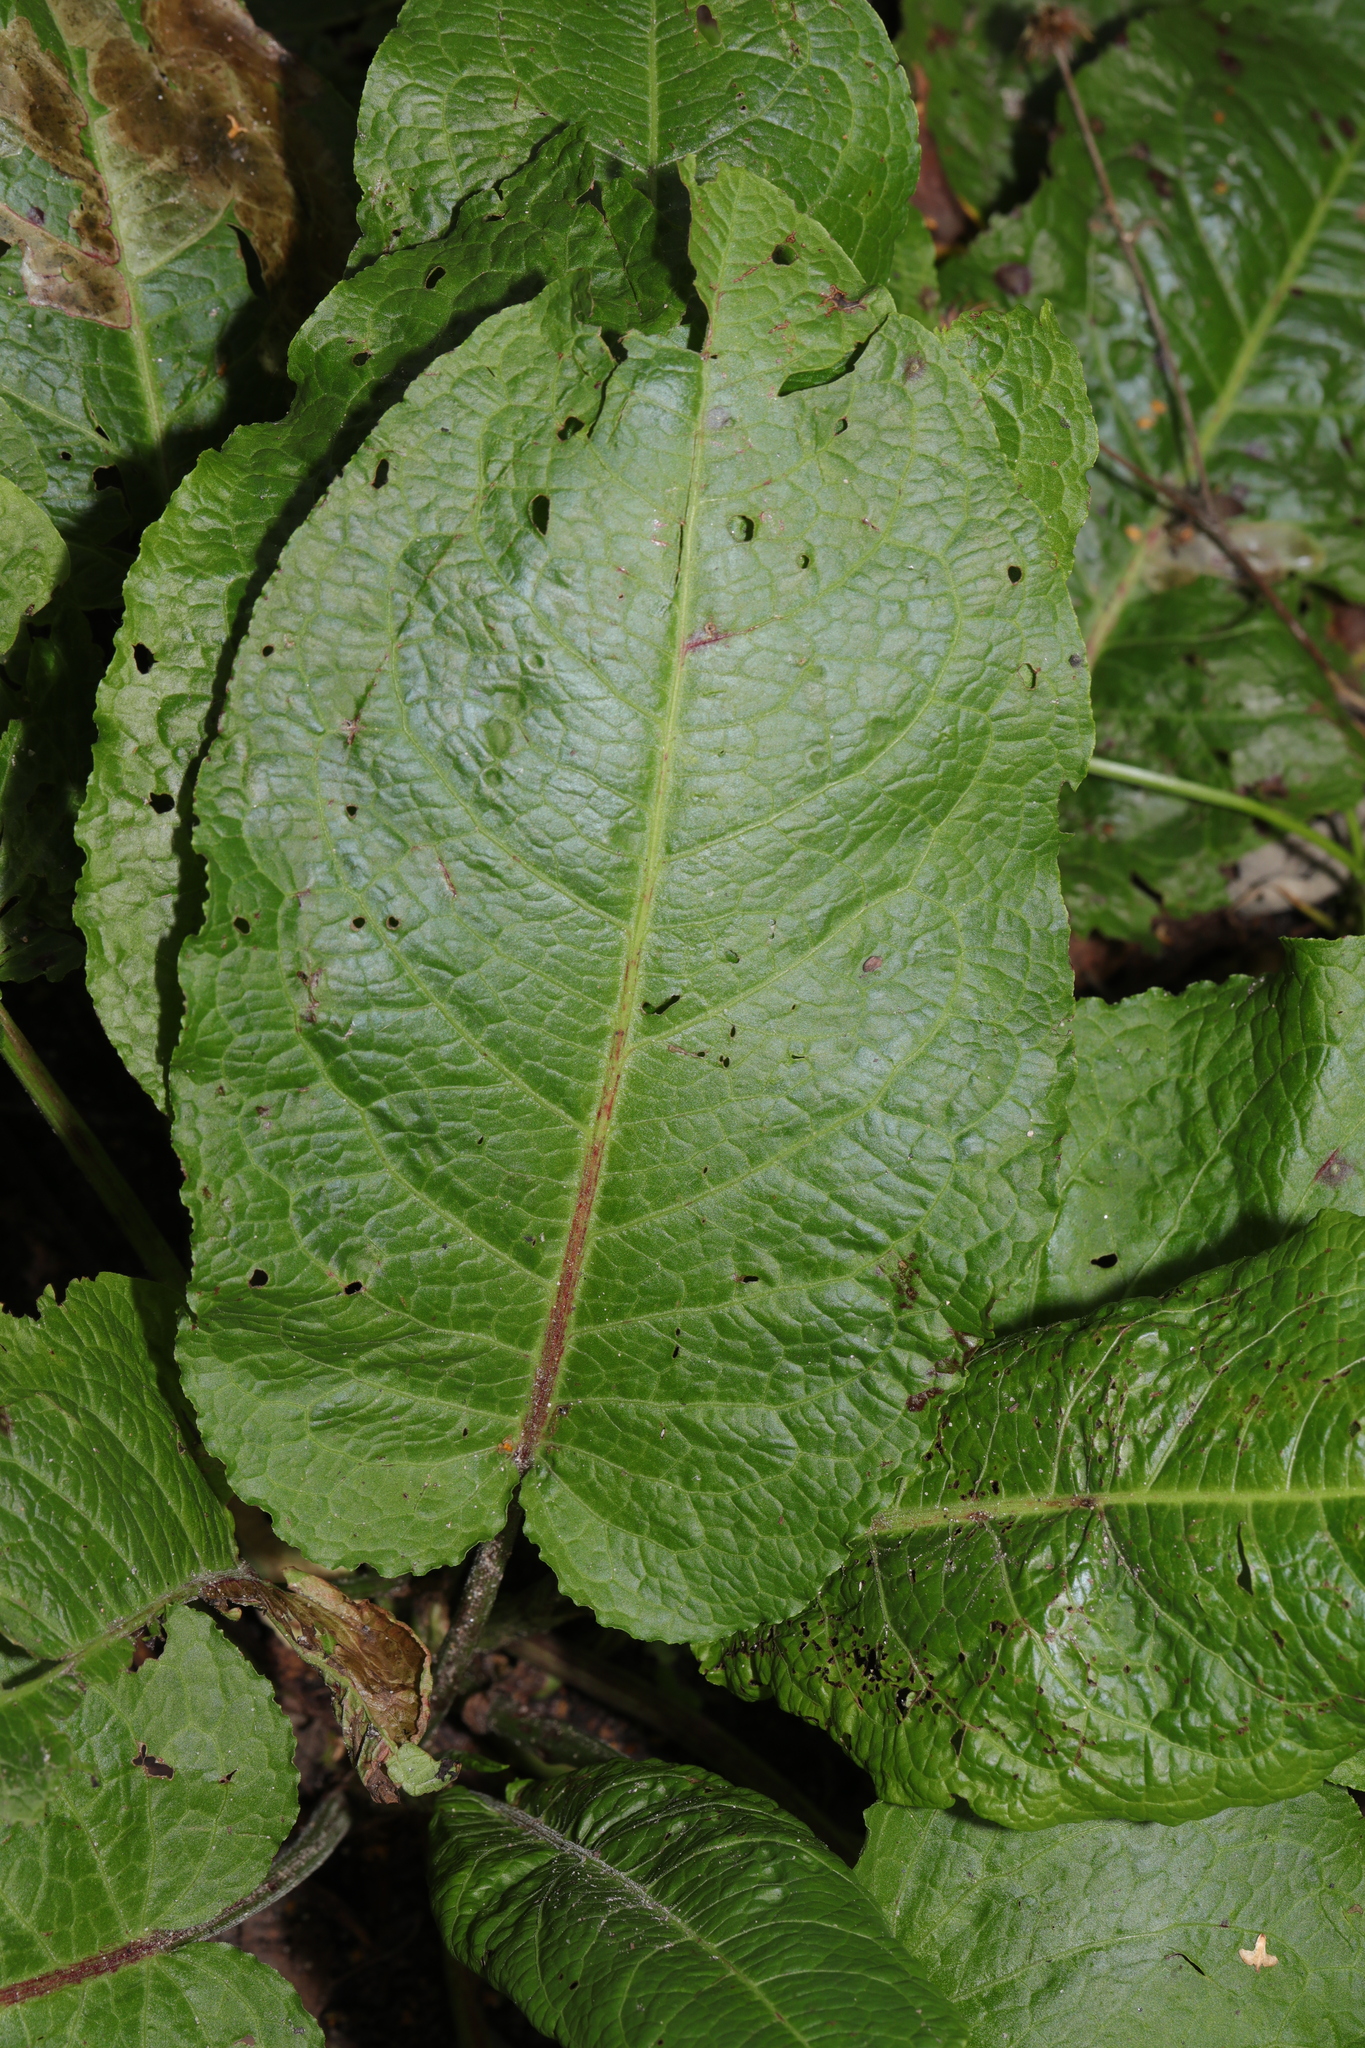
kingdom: Plantae
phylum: Tracheophyta
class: Magnoliopsida
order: Caryophyllales
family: Polygonaceae
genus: Rumex
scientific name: Rumex obtusifolius
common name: Bitter dock
